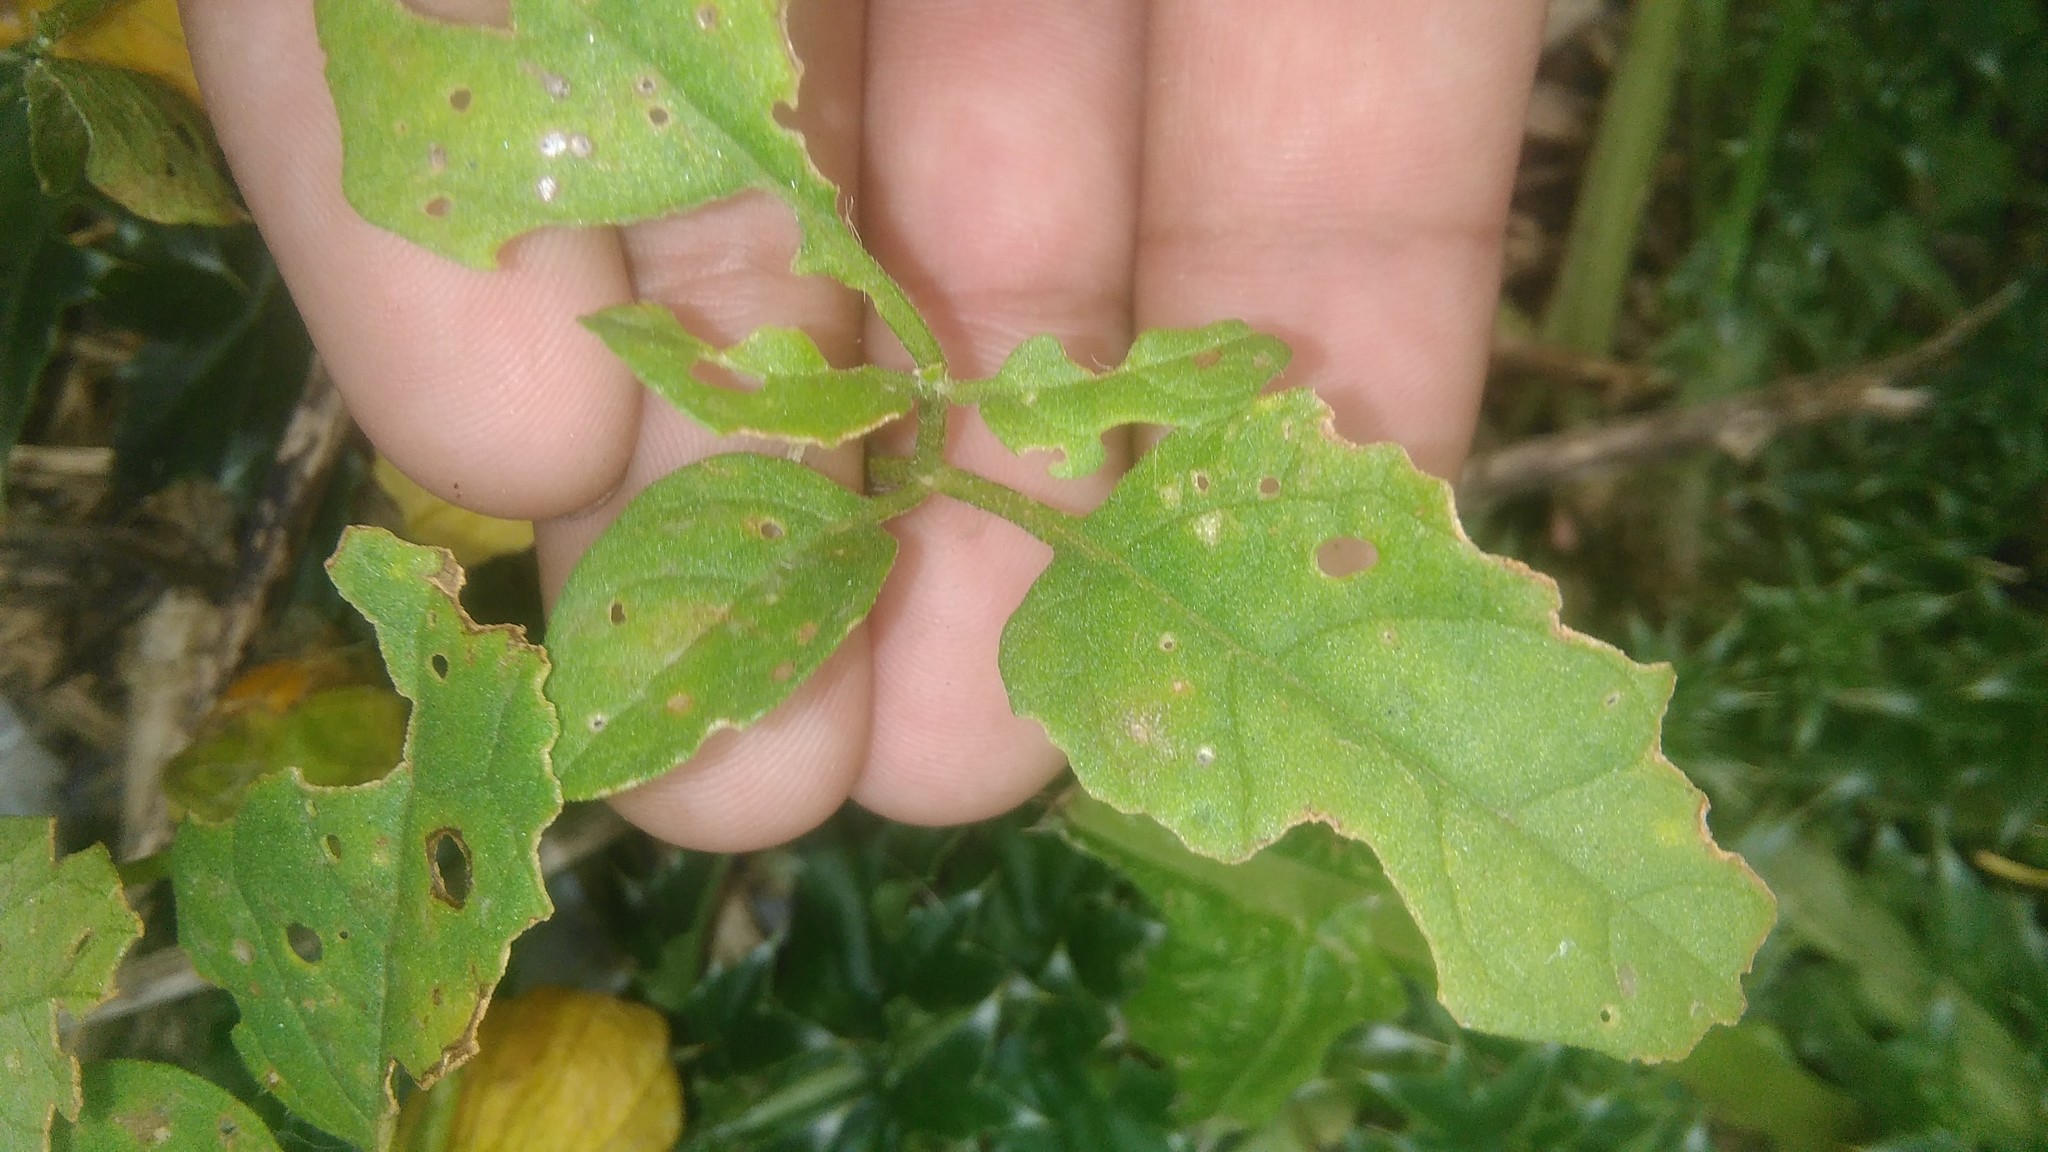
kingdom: Plantae
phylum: Tracheophyta
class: Magnoliopsida
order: Solanales
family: Solanaceae
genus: Physalis
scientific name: Physalis viscosa
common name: Stellate ground-cherry
